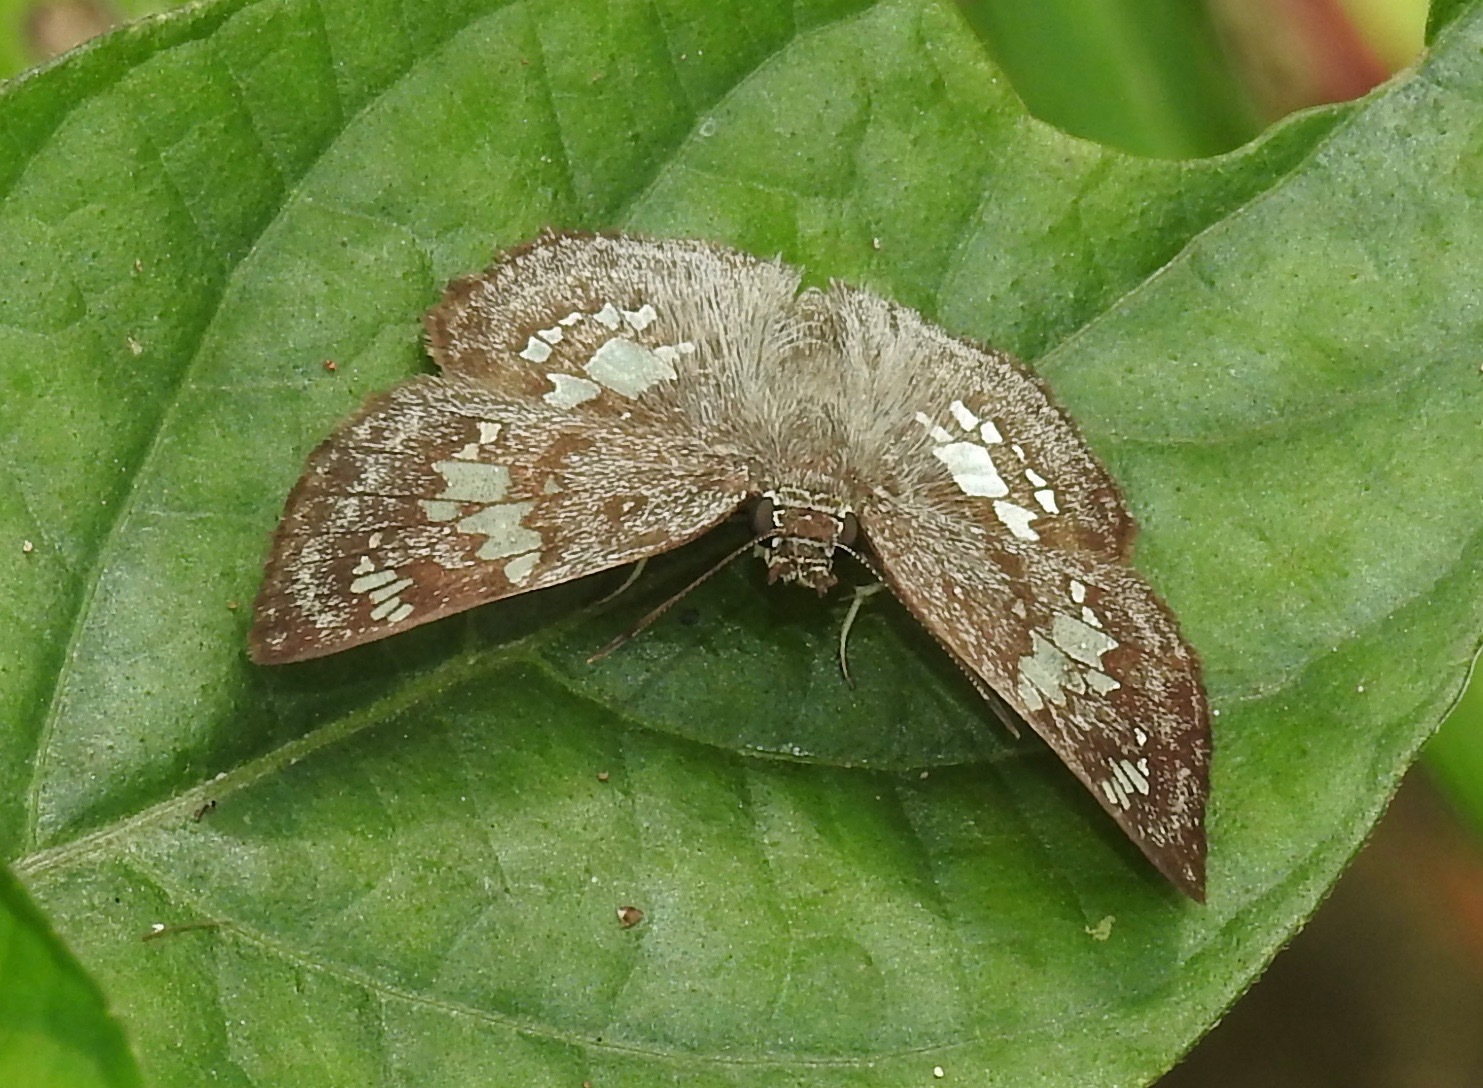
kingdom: Animalia
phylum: Arthropoda
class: Insecta
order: Lepidoptera
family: Hesperiidae
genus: Xenophanes
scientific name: Xenophanes tryxus
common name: Glassy-winged skipper
